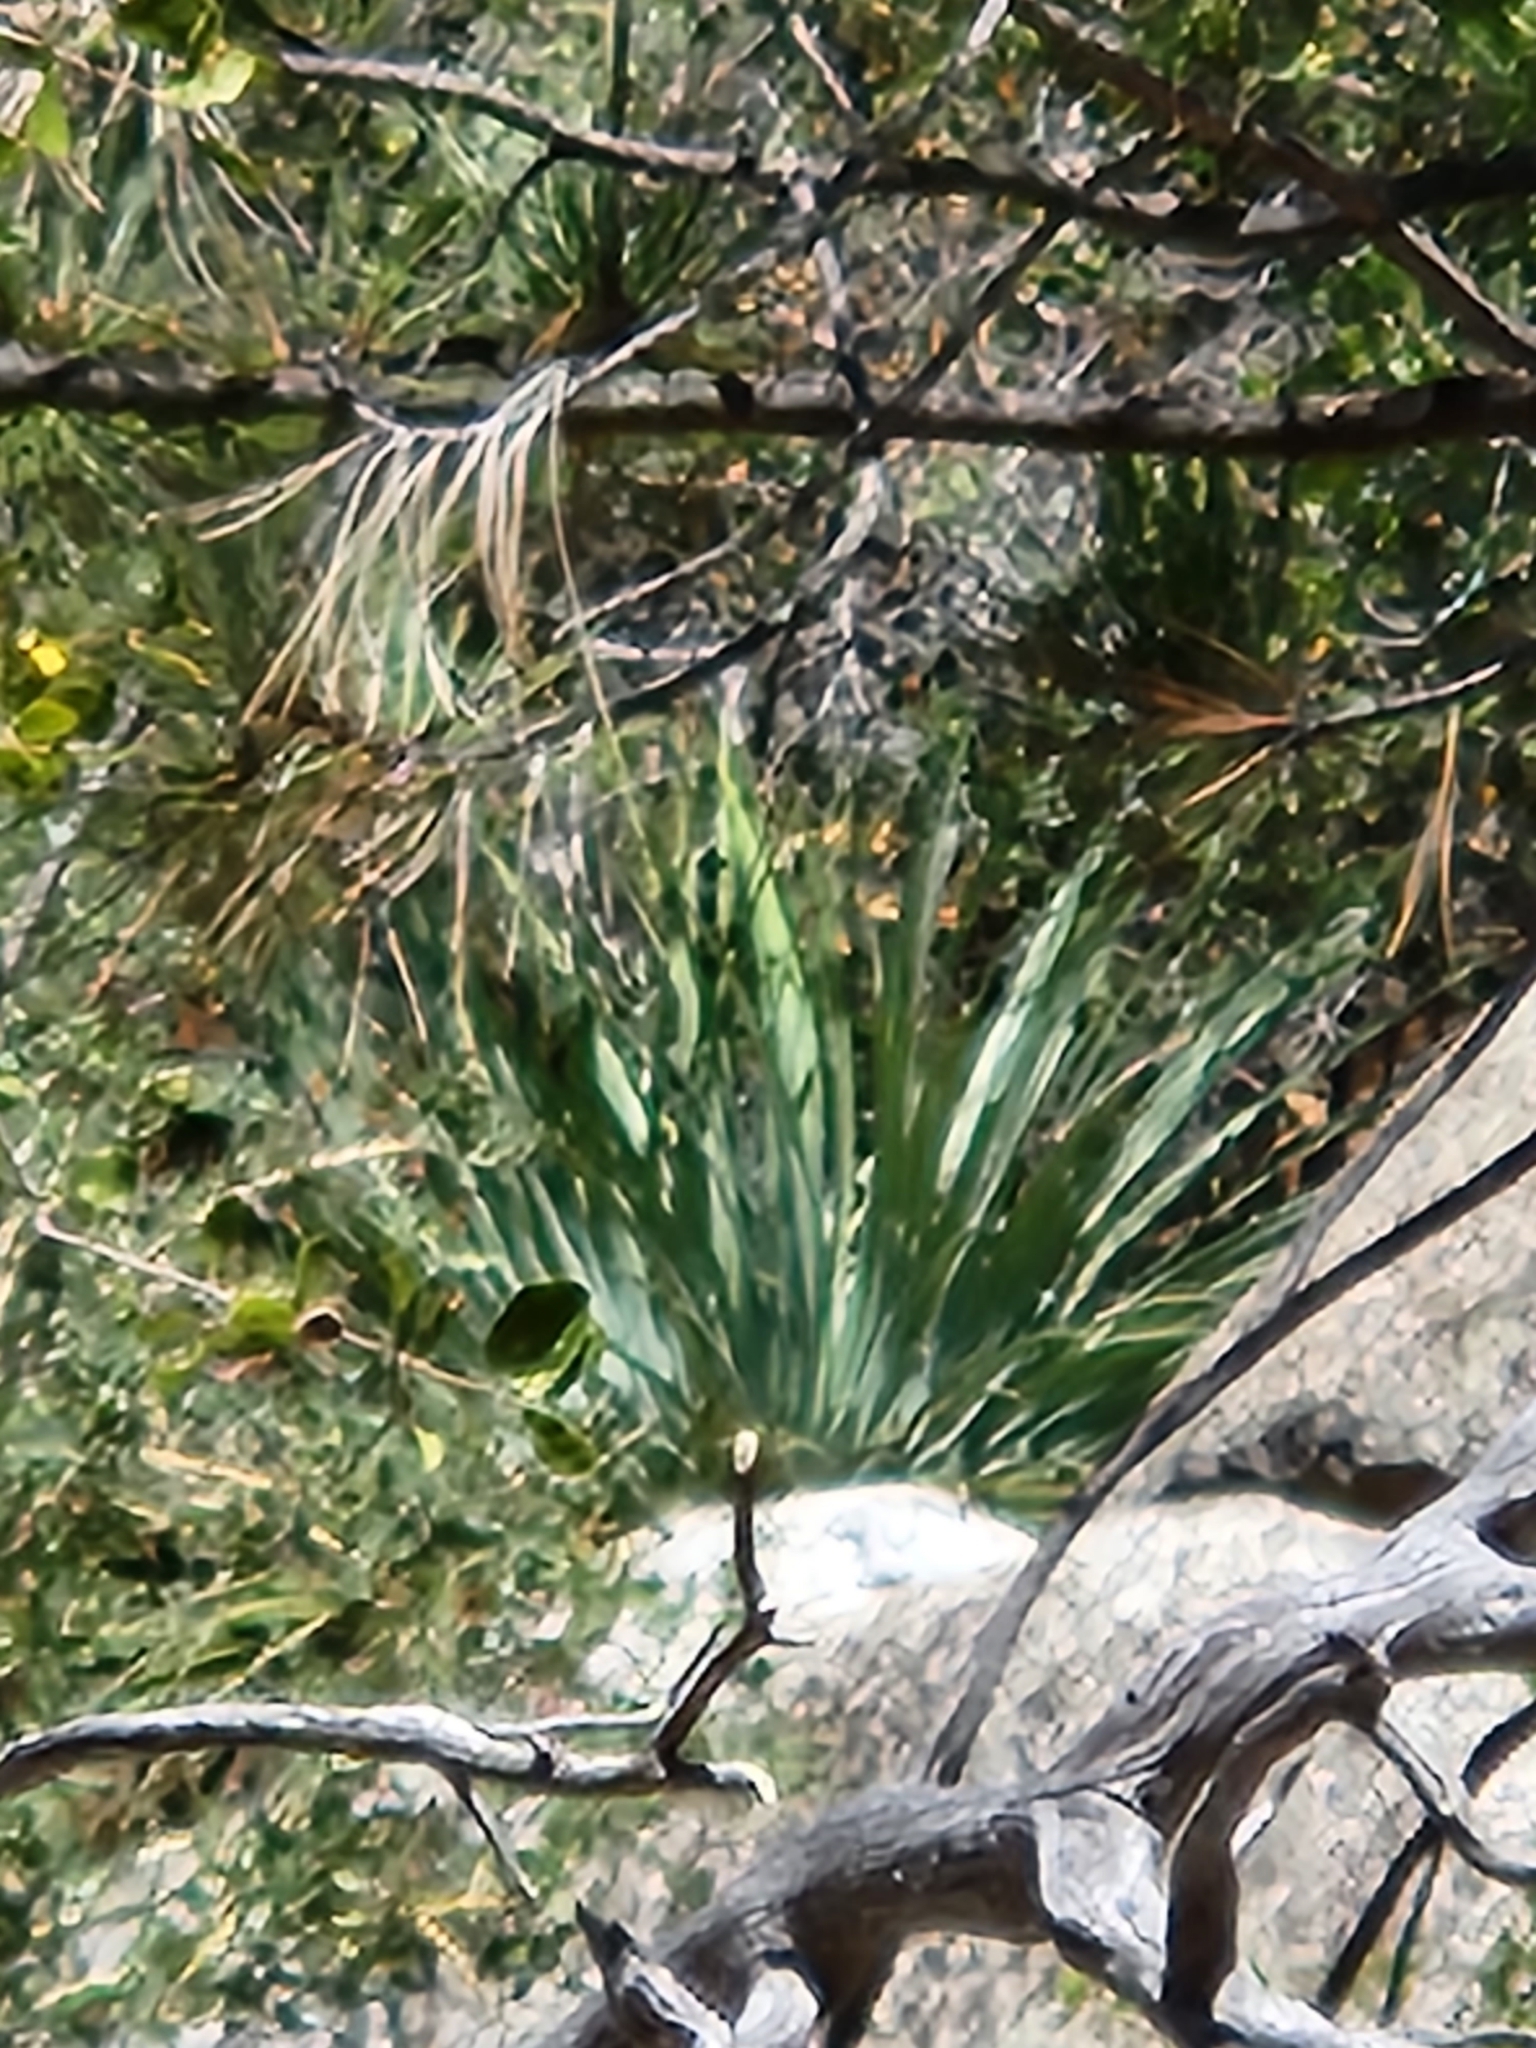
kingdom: Plantae
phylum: Tracheophyta
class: Liliopsida
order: Asparagales
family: Asparagaceae
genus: Hesperoyucca
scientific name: Hesperoyucca whipplei
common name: Our lord's-candle
